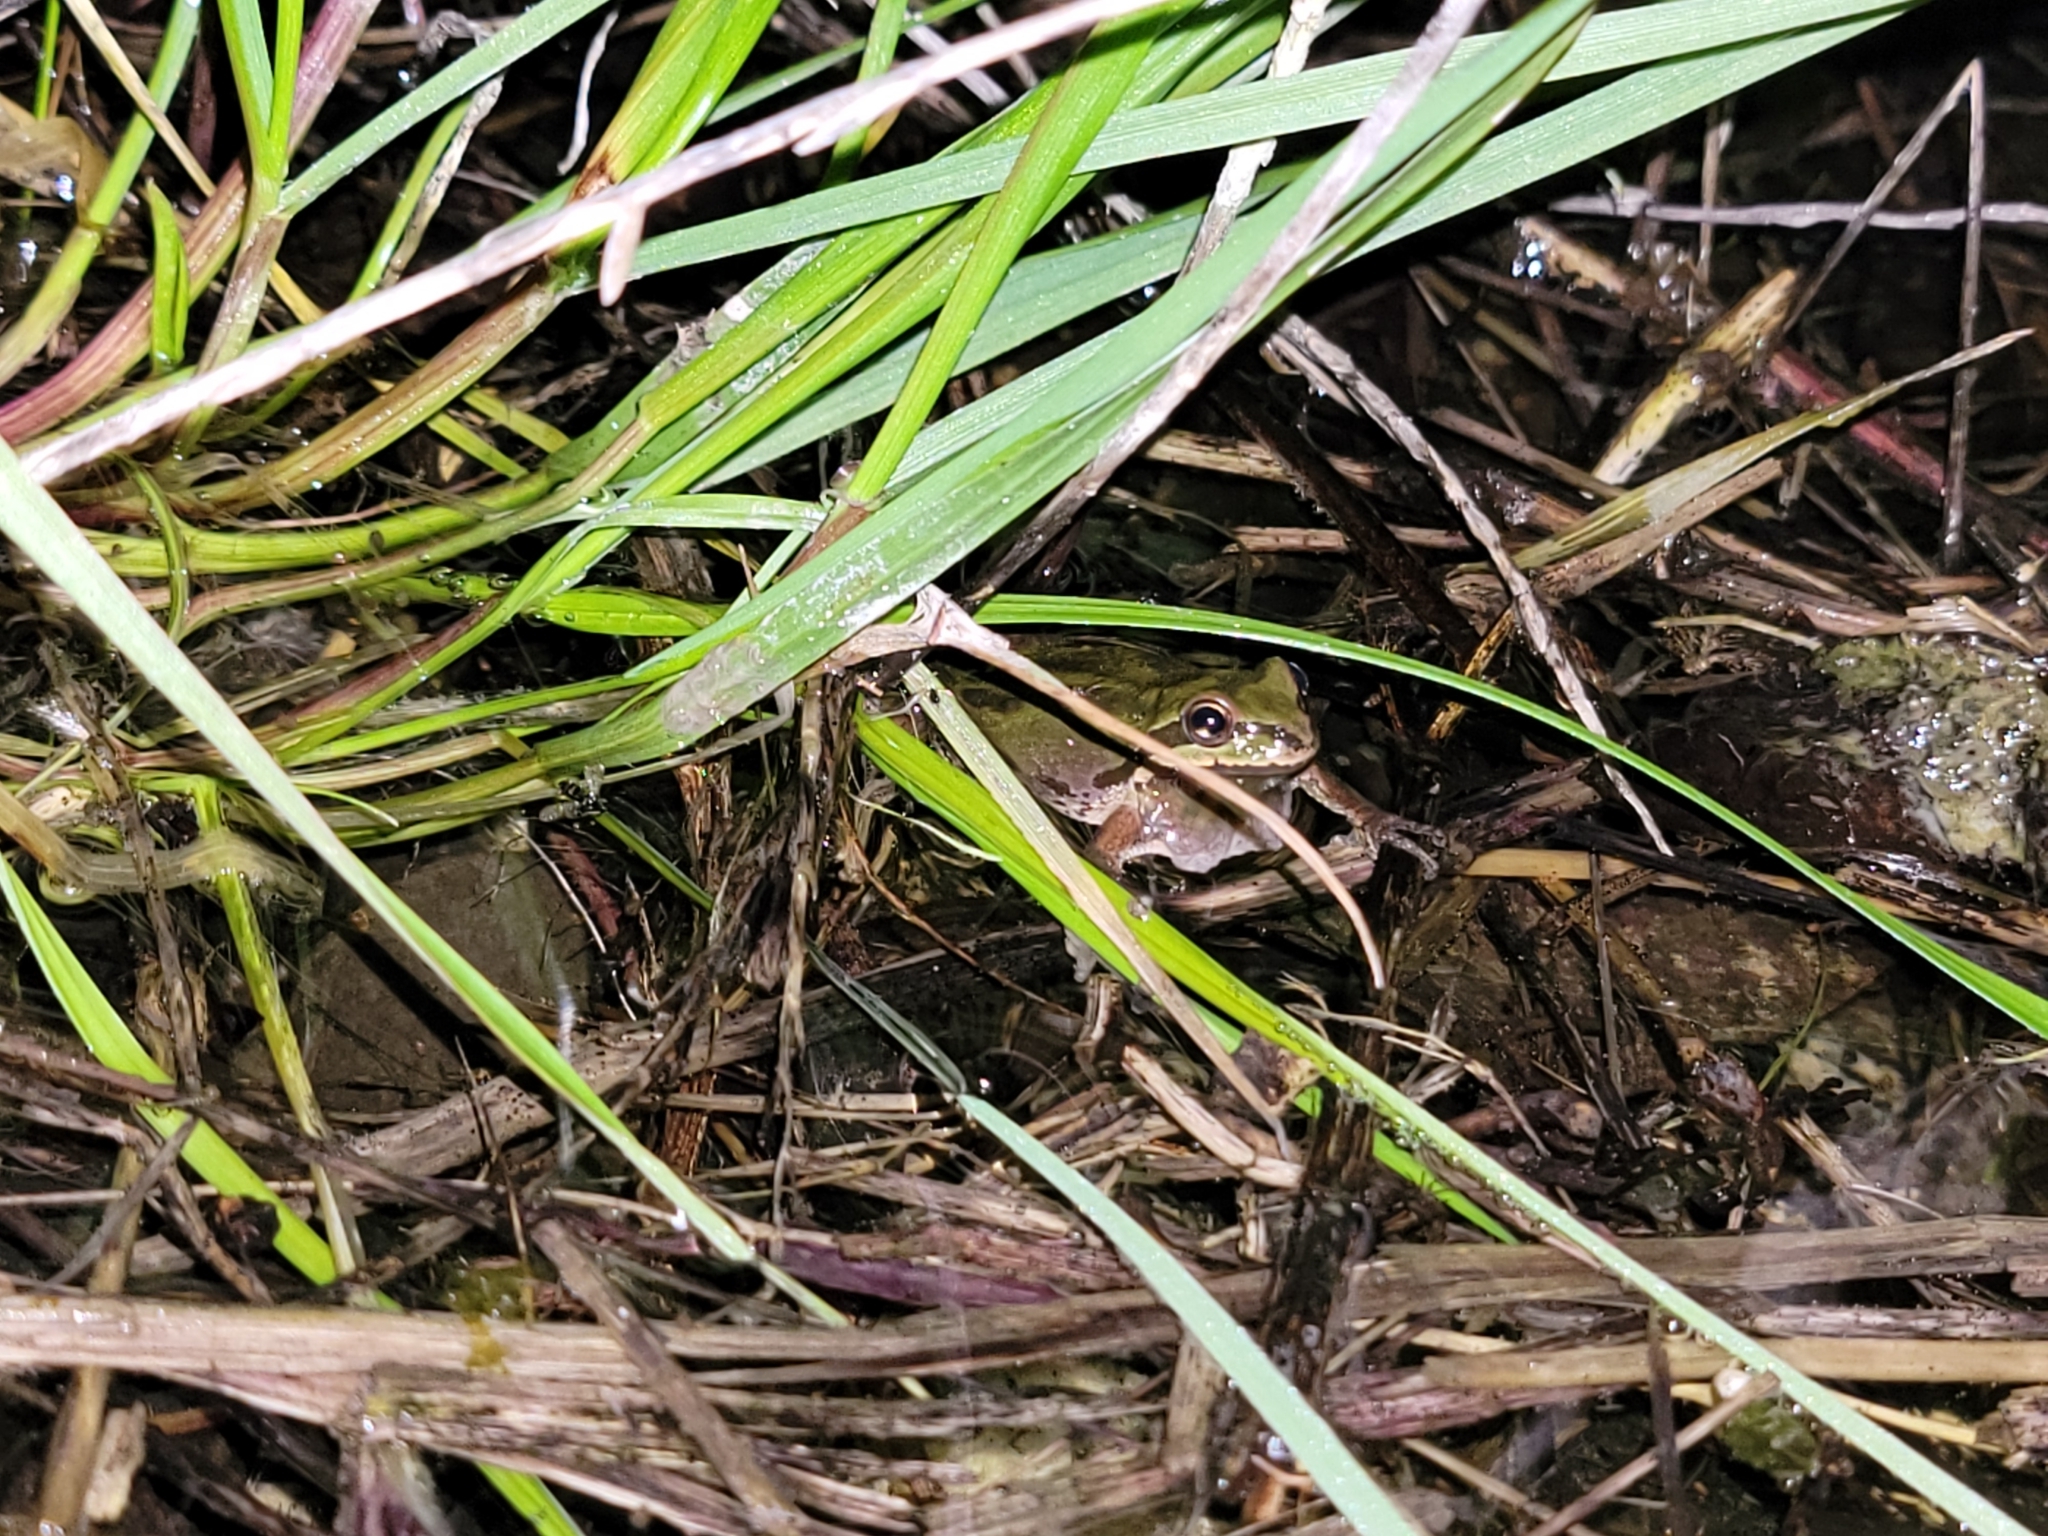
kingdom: Animalia
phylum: Chordata
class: Amphibia
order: Anura
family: Hylidae
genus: Pseudacris
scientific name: Pseudacris regilla
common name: Pacific chorus frog
